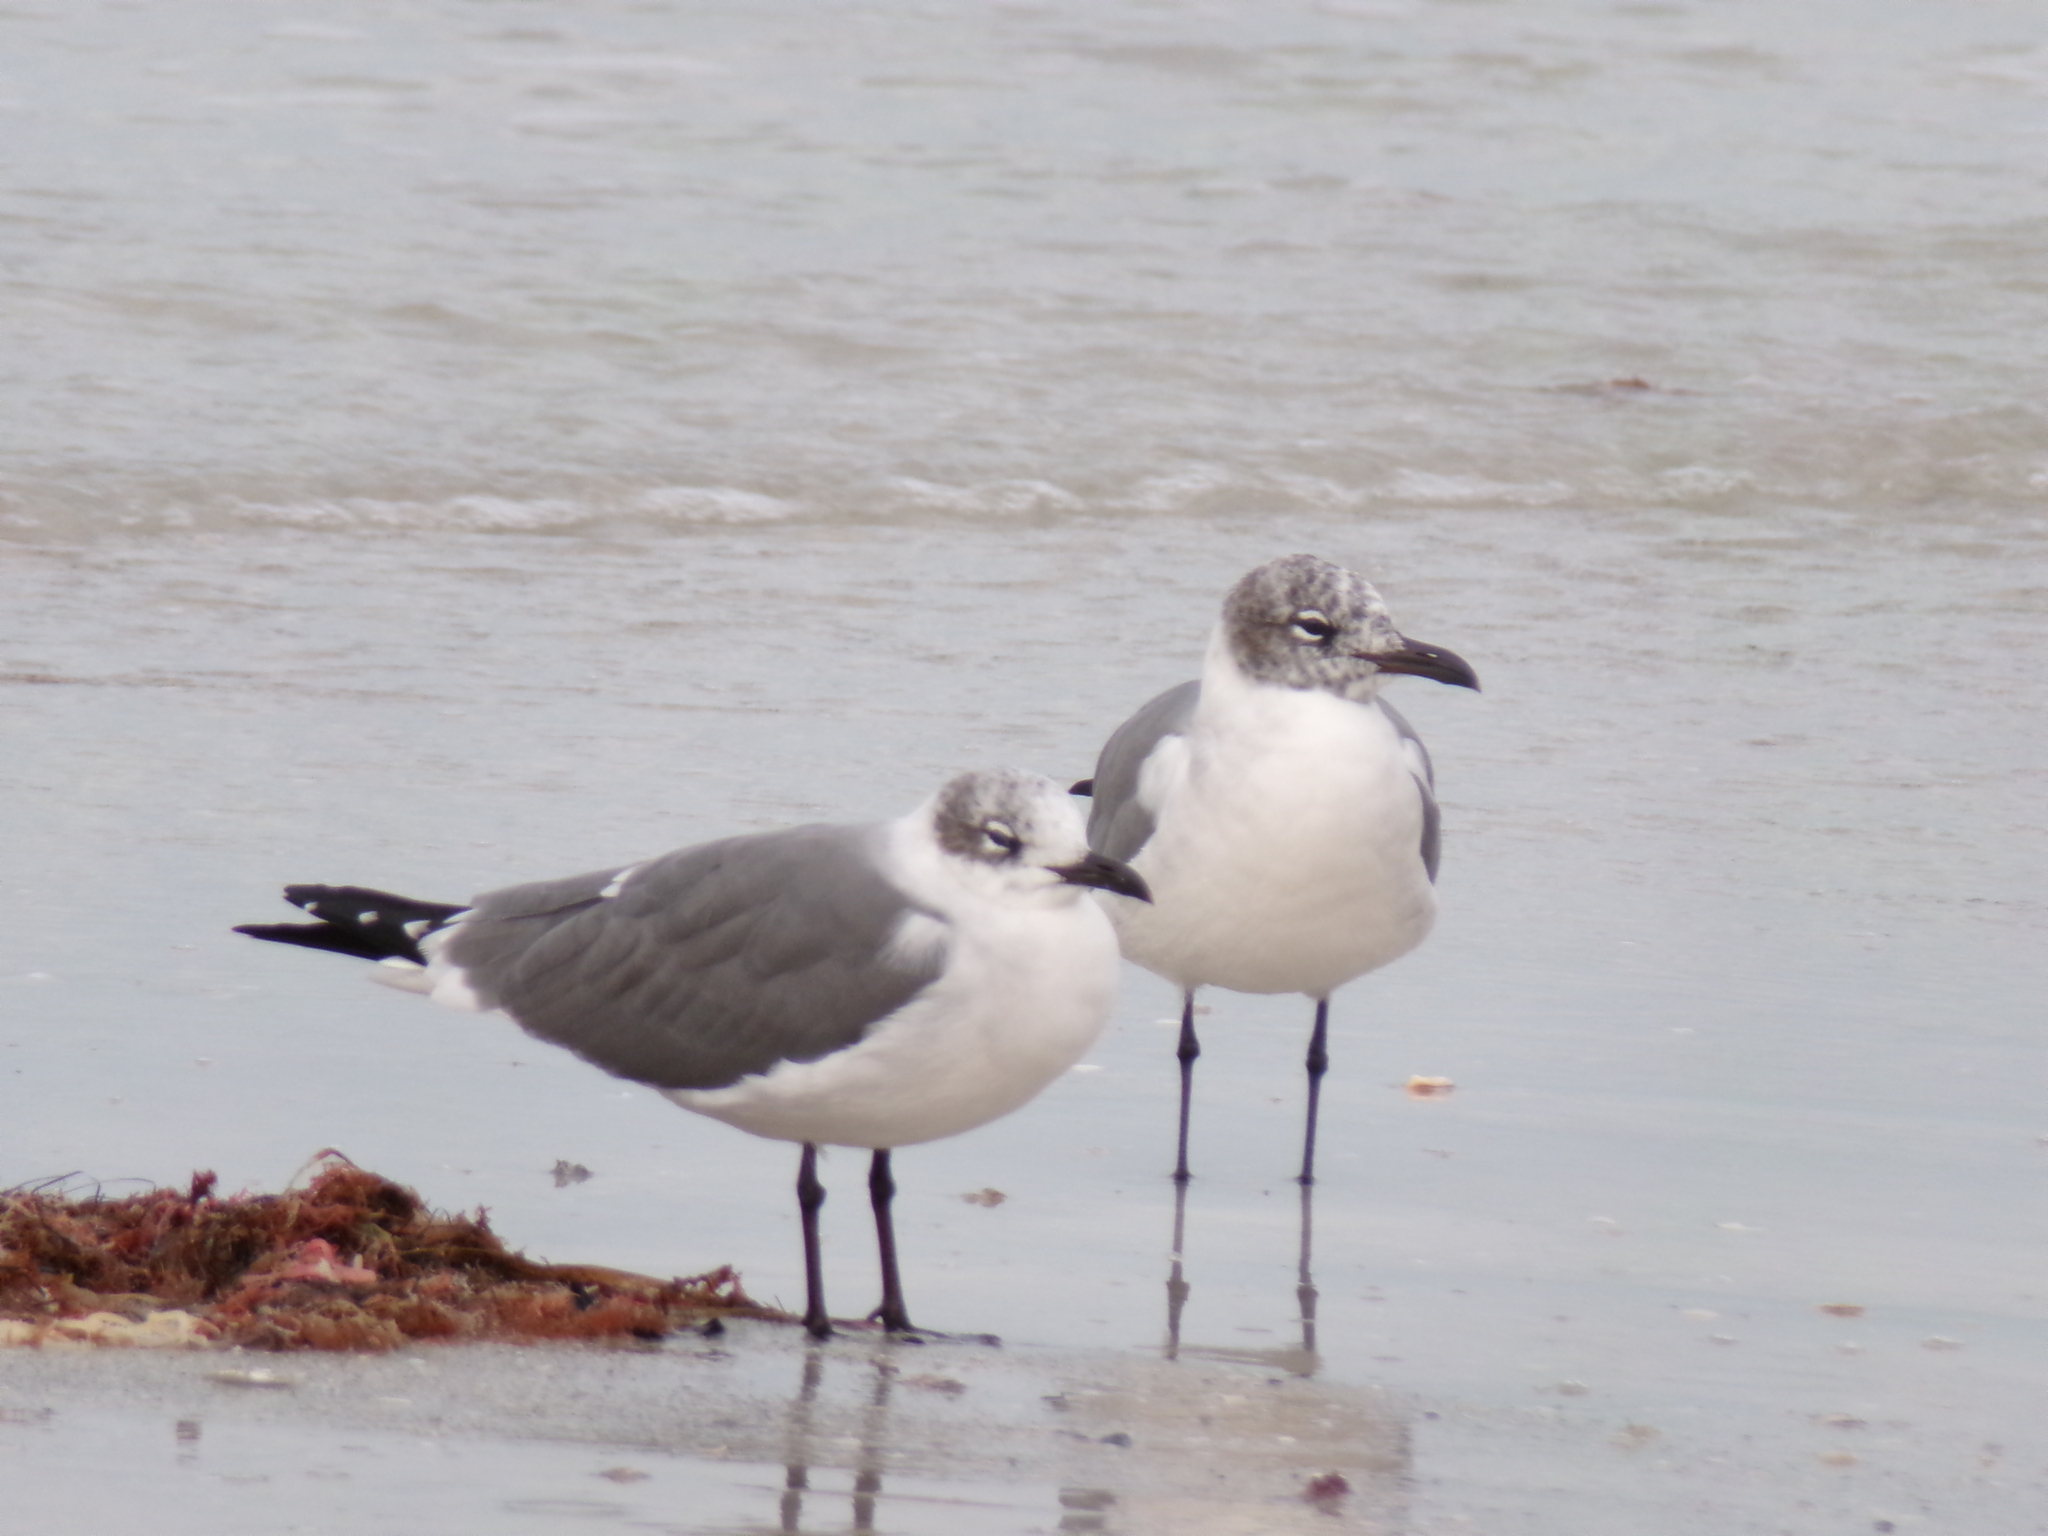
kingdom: Animalia
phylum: Chordata
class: Aves
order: Charadriiformes
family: Laridae
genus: Leucophaeus
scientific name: Leucophaeus atricilla
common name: Laughing gull
